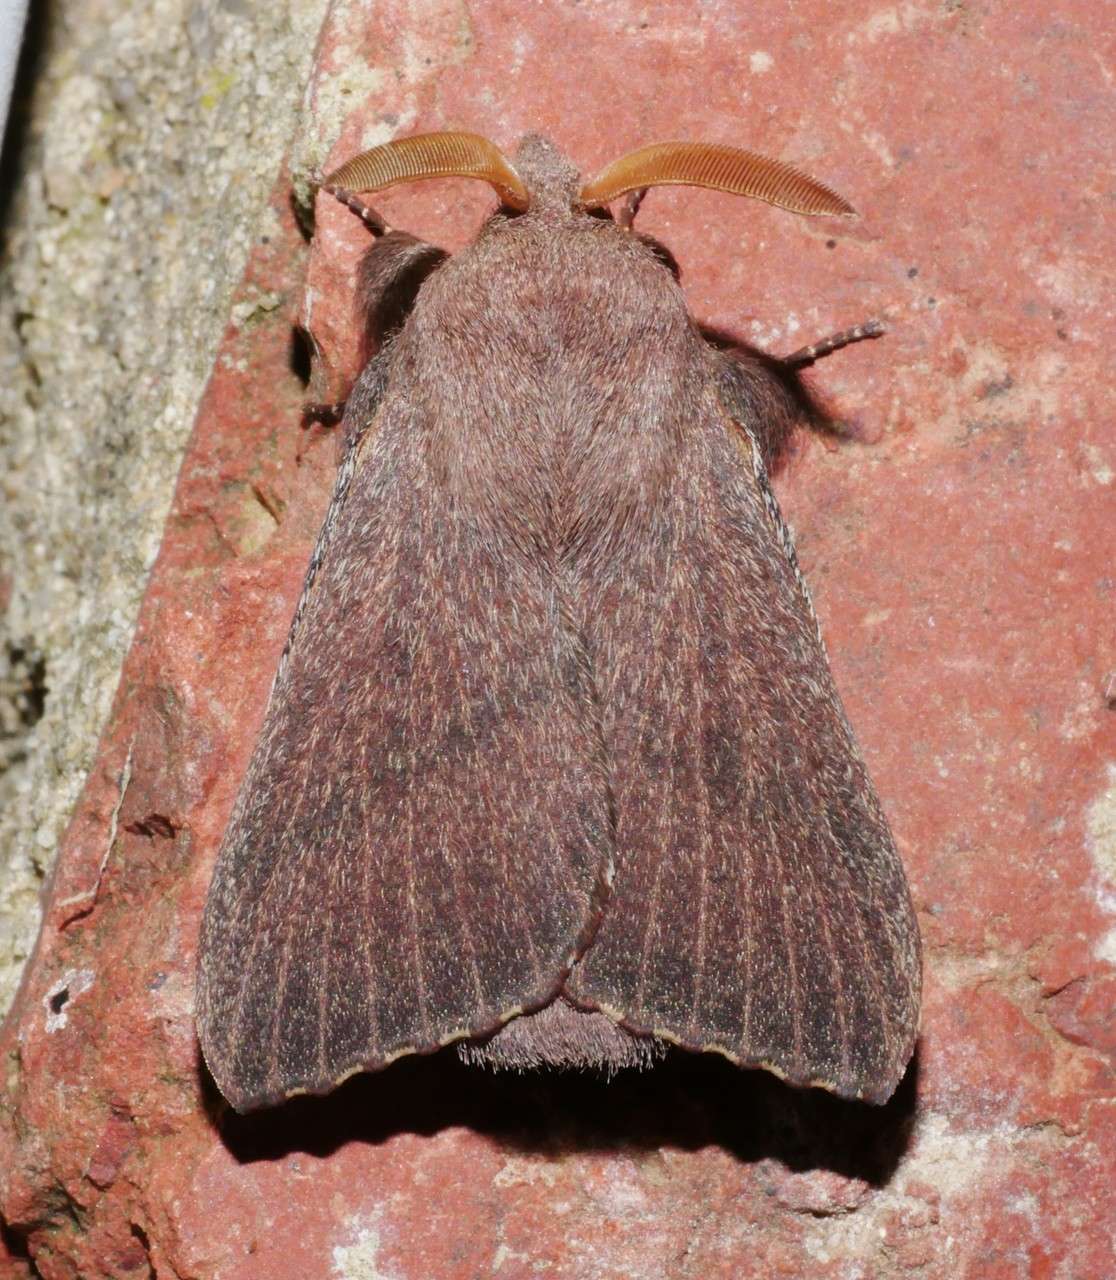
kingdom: Animalia
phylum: Arthropoda
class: Insecta
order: Lepidoptera
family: Lasiocampidae
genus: Pararguda
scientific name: Pararguda rufescens
